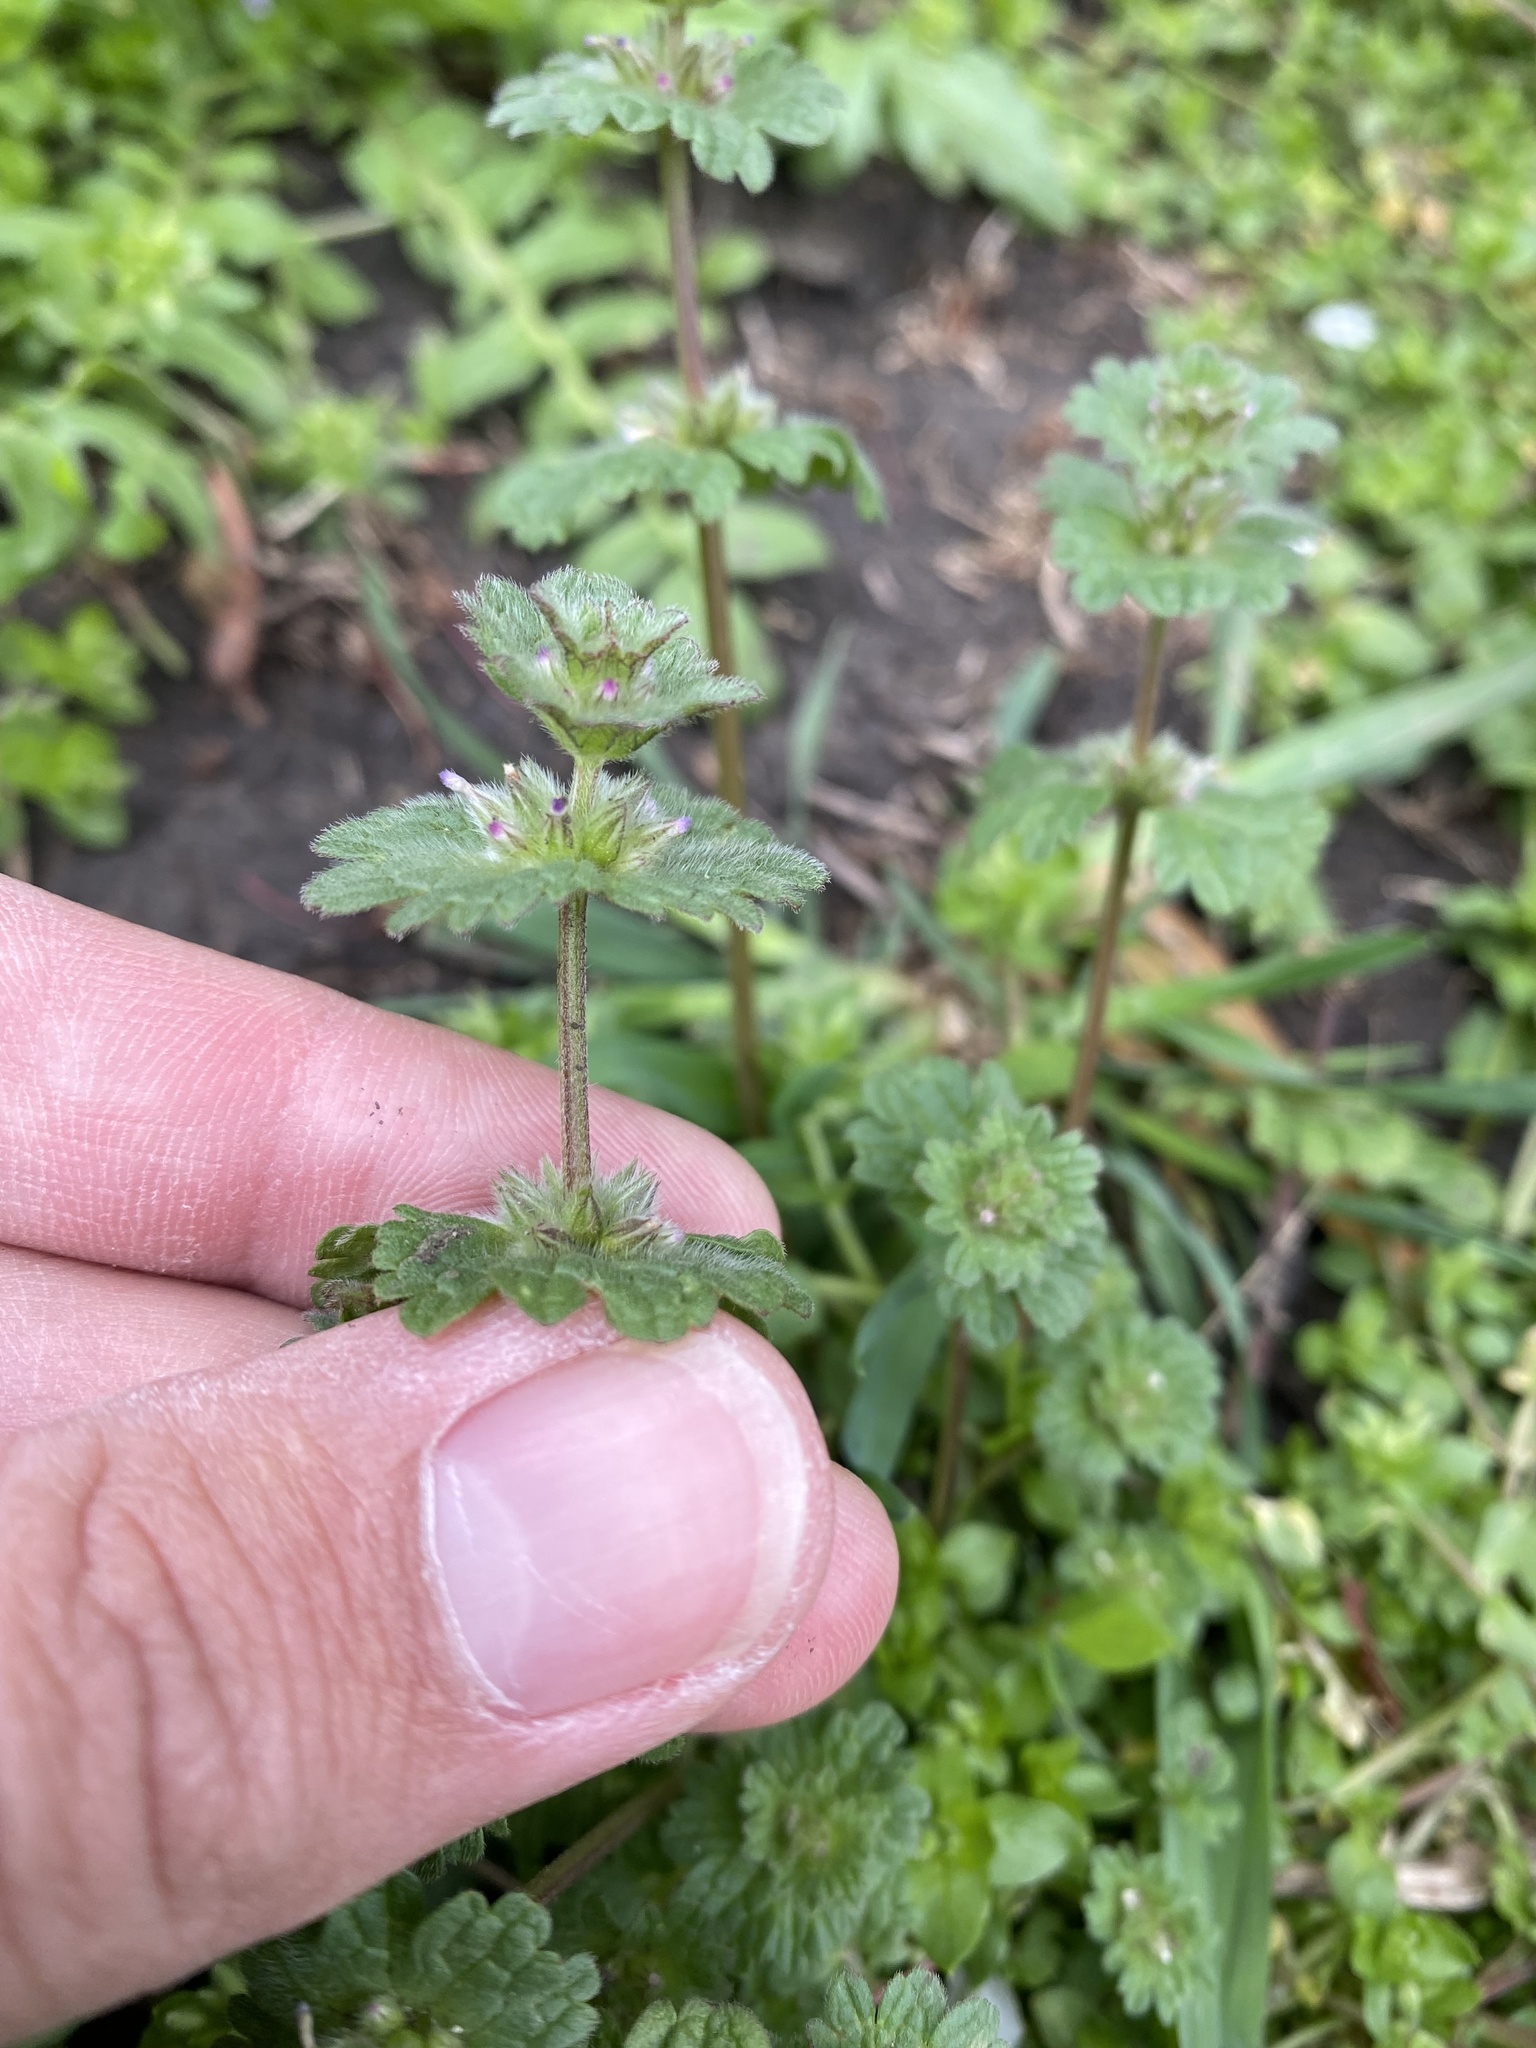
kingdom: Plantae
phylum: Tracheophyta
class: Magnoliopsida
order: Lamiales
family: Lamiaceae
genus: Lamium
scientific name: Lamium amplexicaule
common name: Henbit dead-nettle
